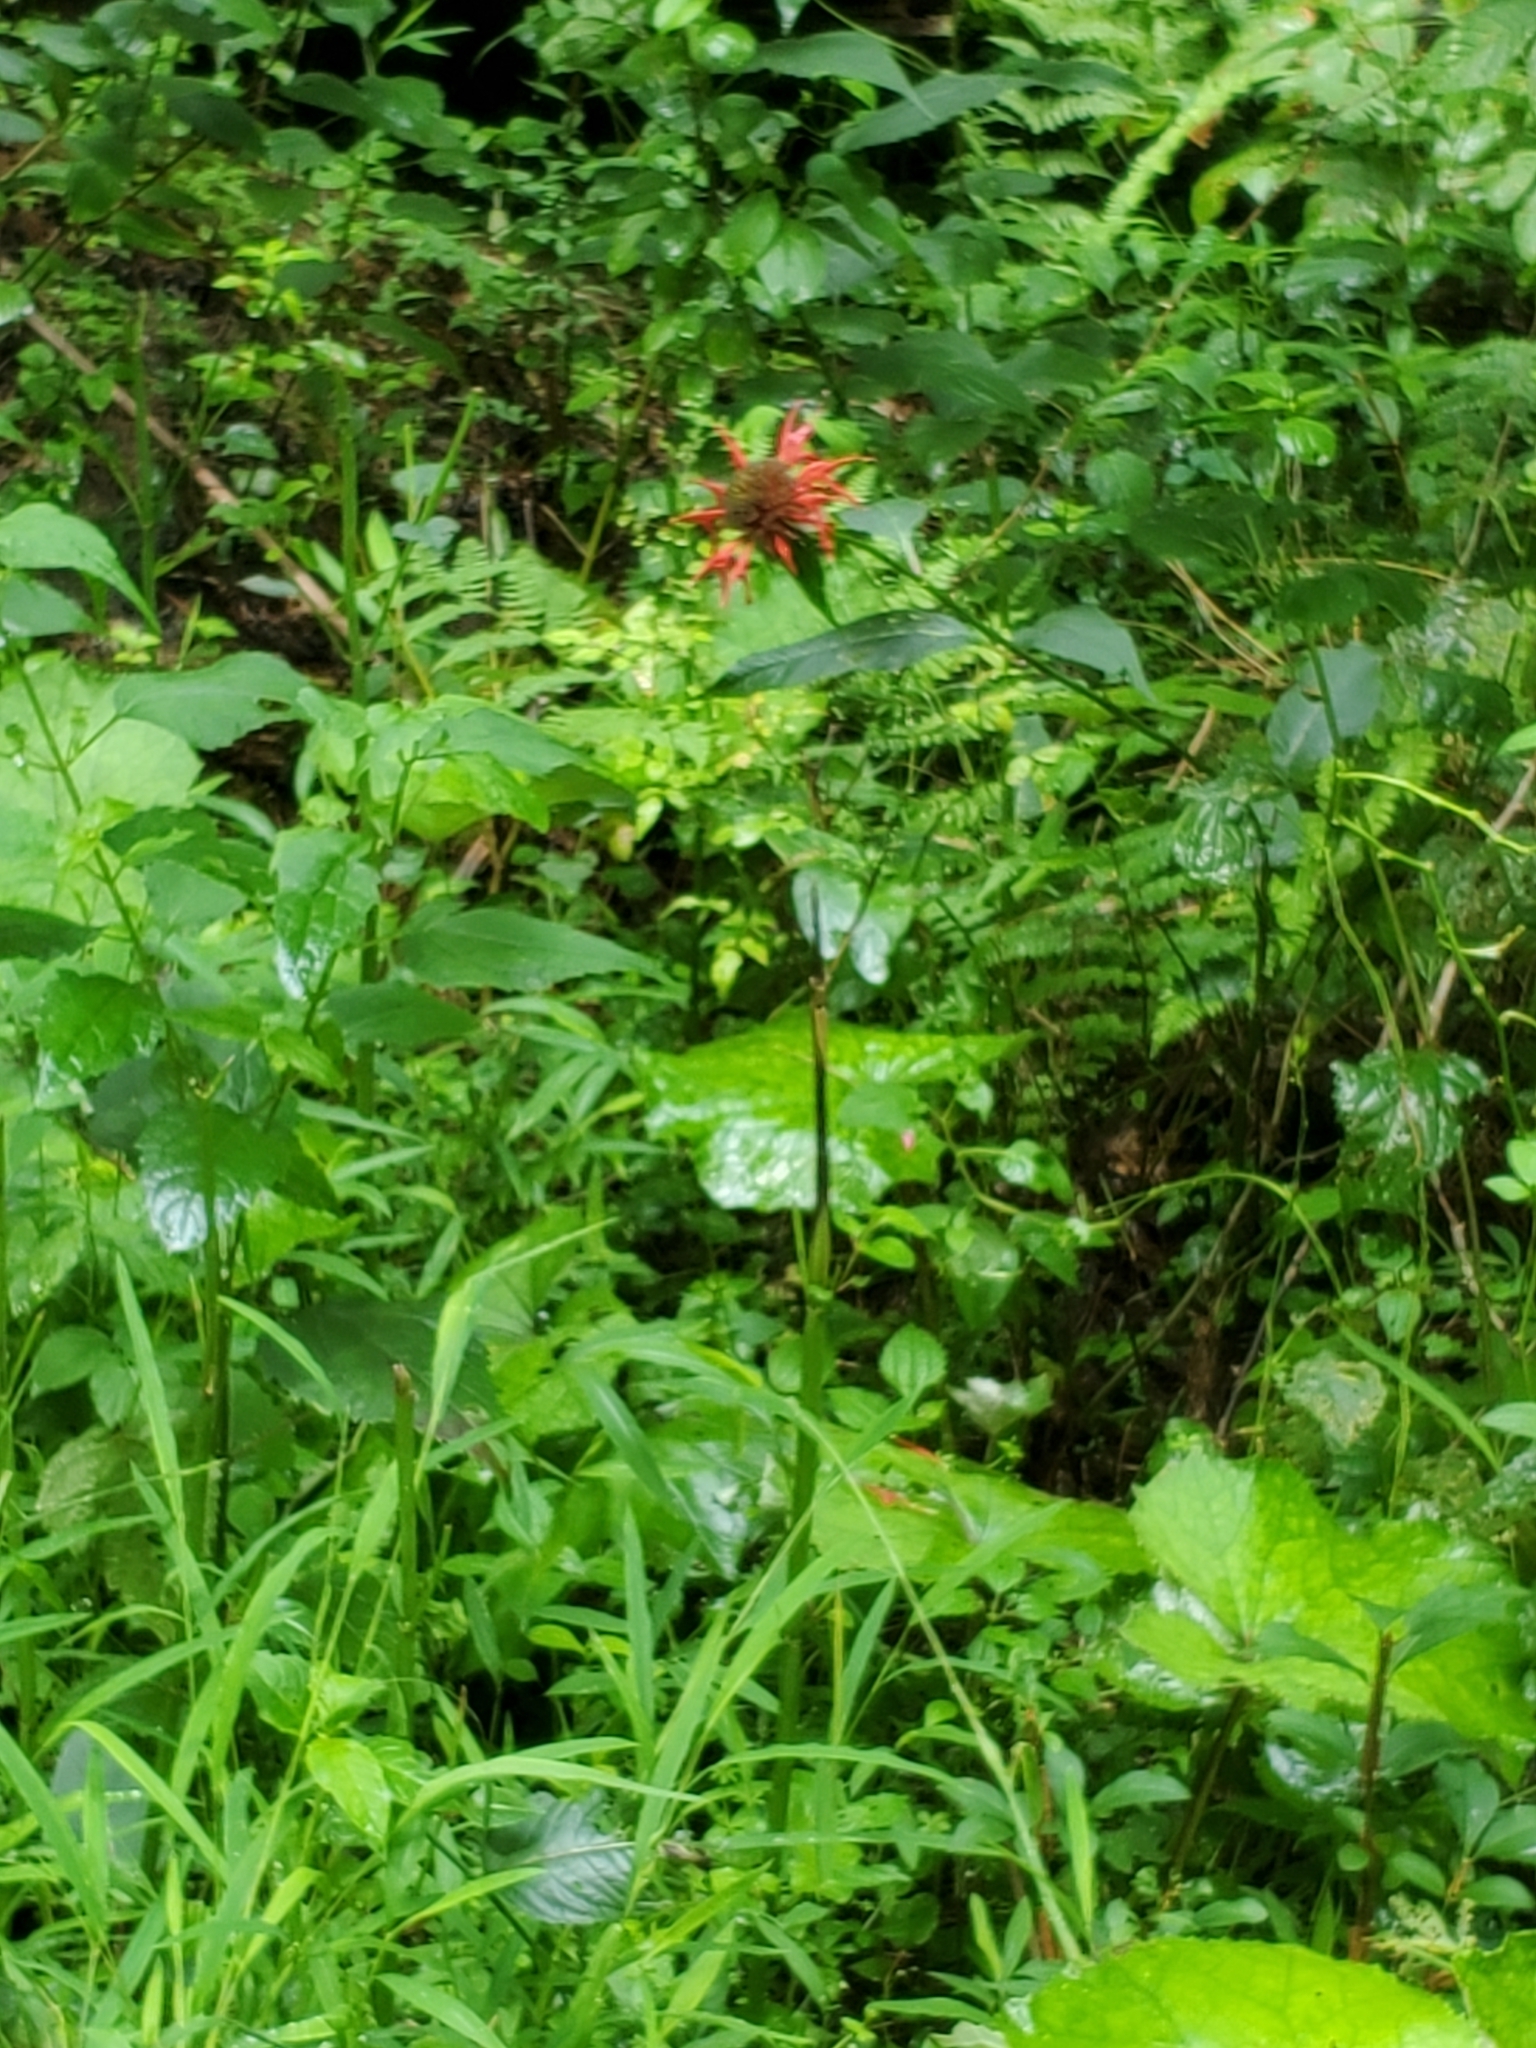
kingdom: Plantae
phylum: Tracheophyta
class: Magnoliopsida
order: Lamiales
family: Lamiaceae
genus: Monarda
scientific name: Monarda didyma
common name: Beebalm
